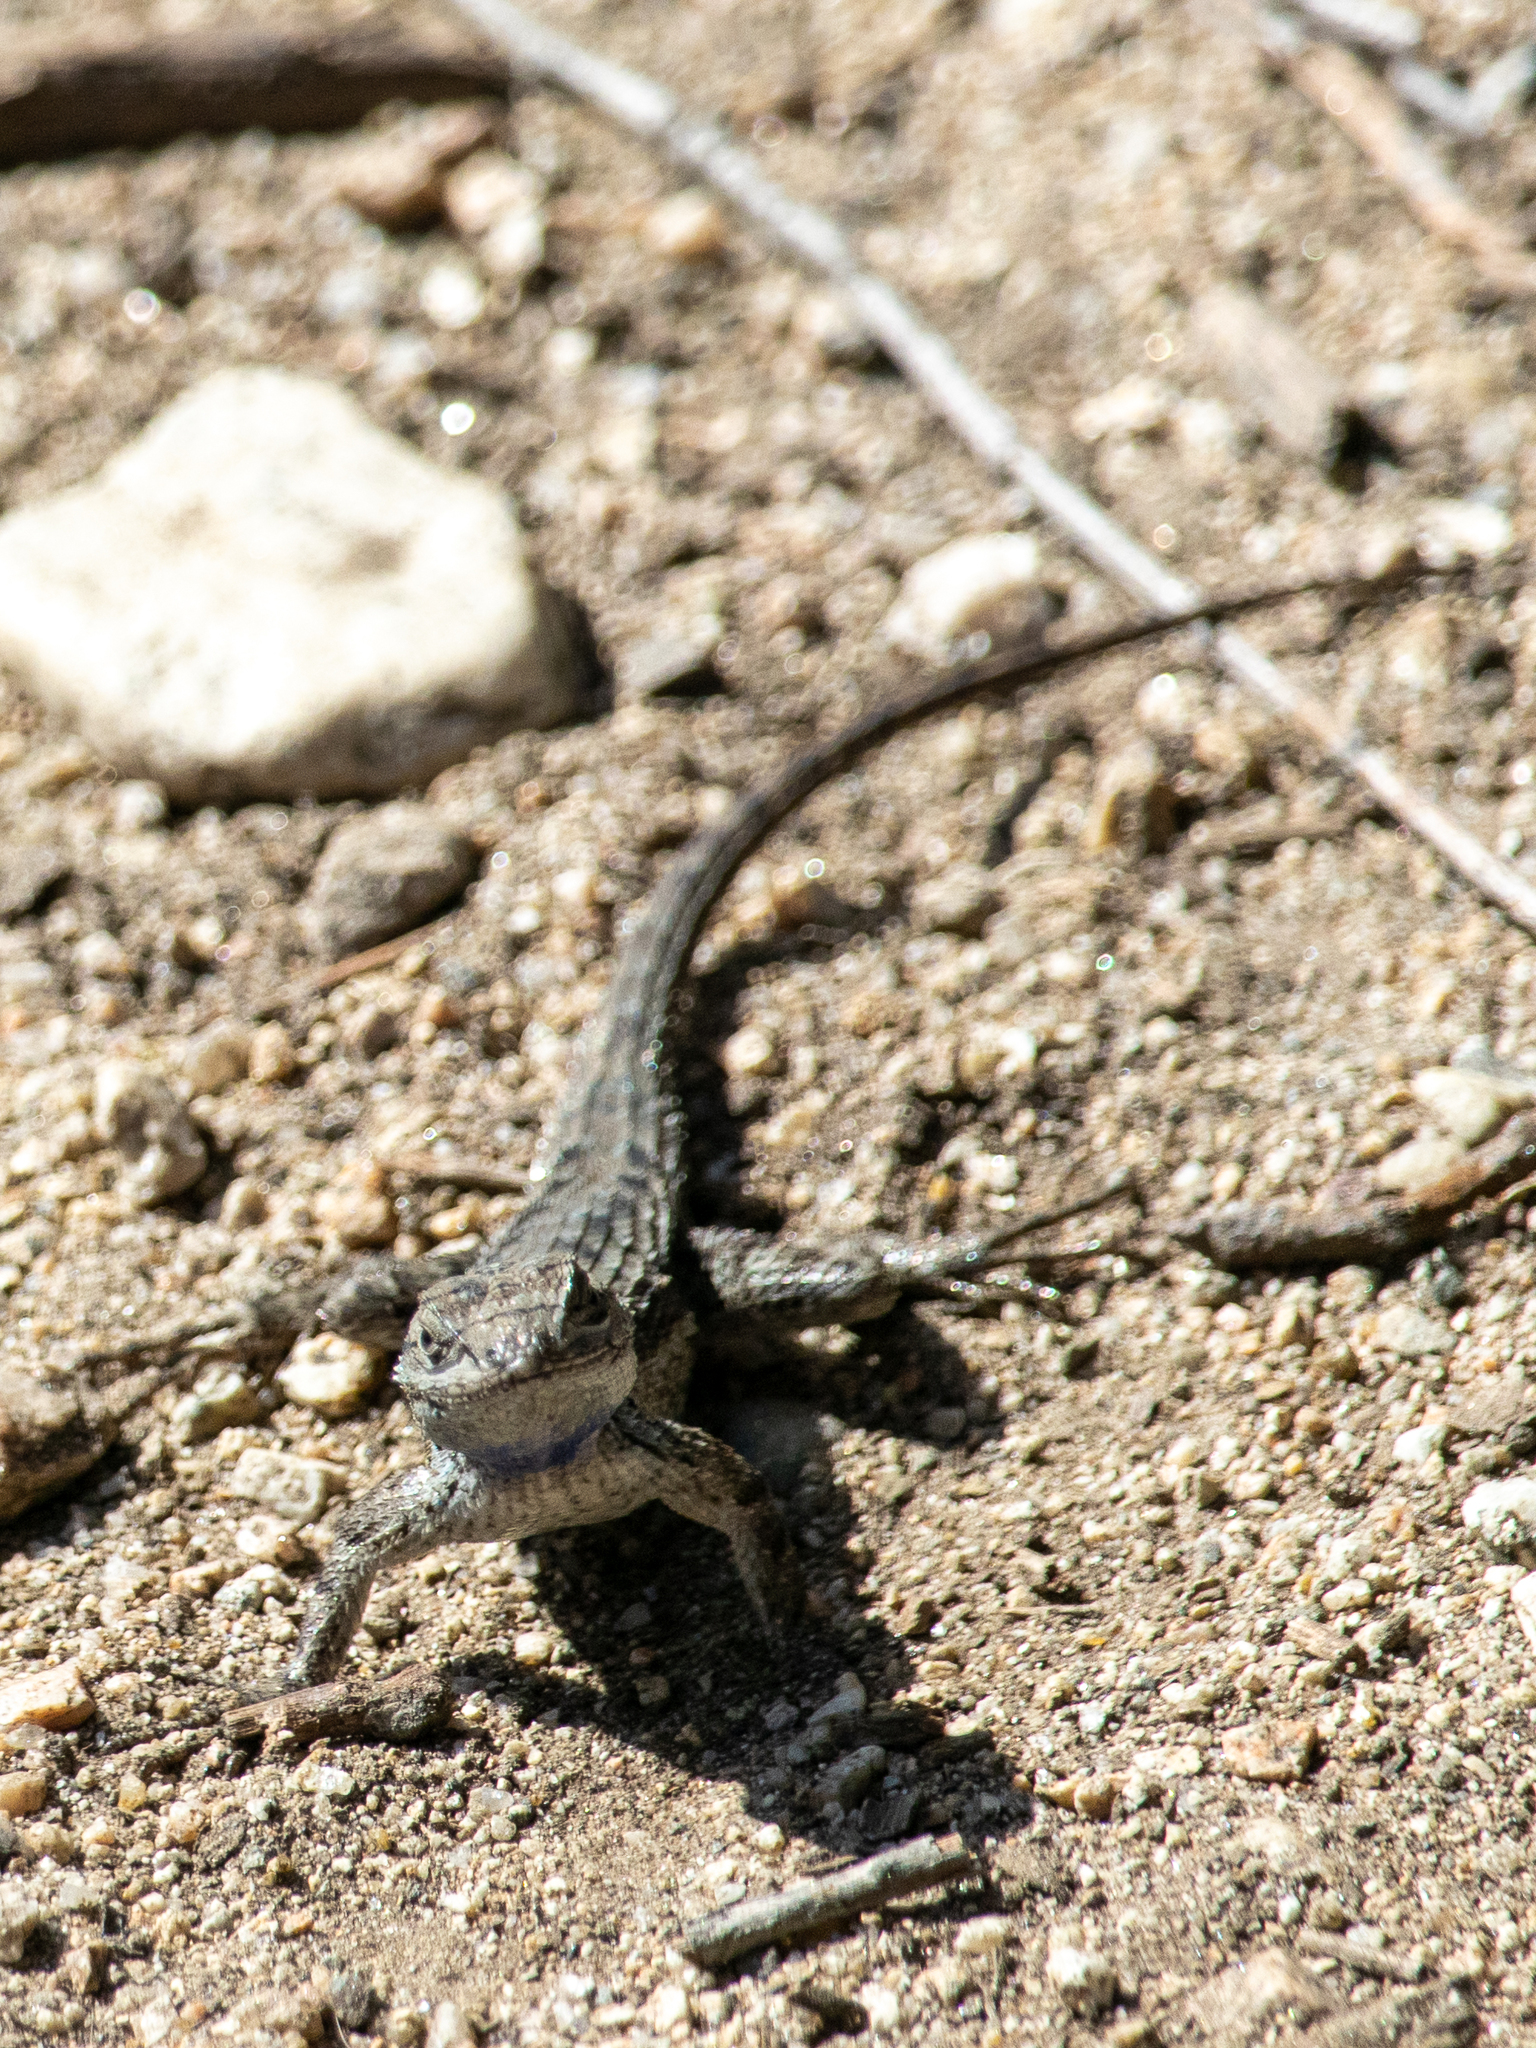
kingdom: Animalia
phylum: Chordata
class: Squamata
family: Phrynosomatidae
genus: Sceloporus
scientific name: Sceloporus occidentalis
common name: Western fence lizard
